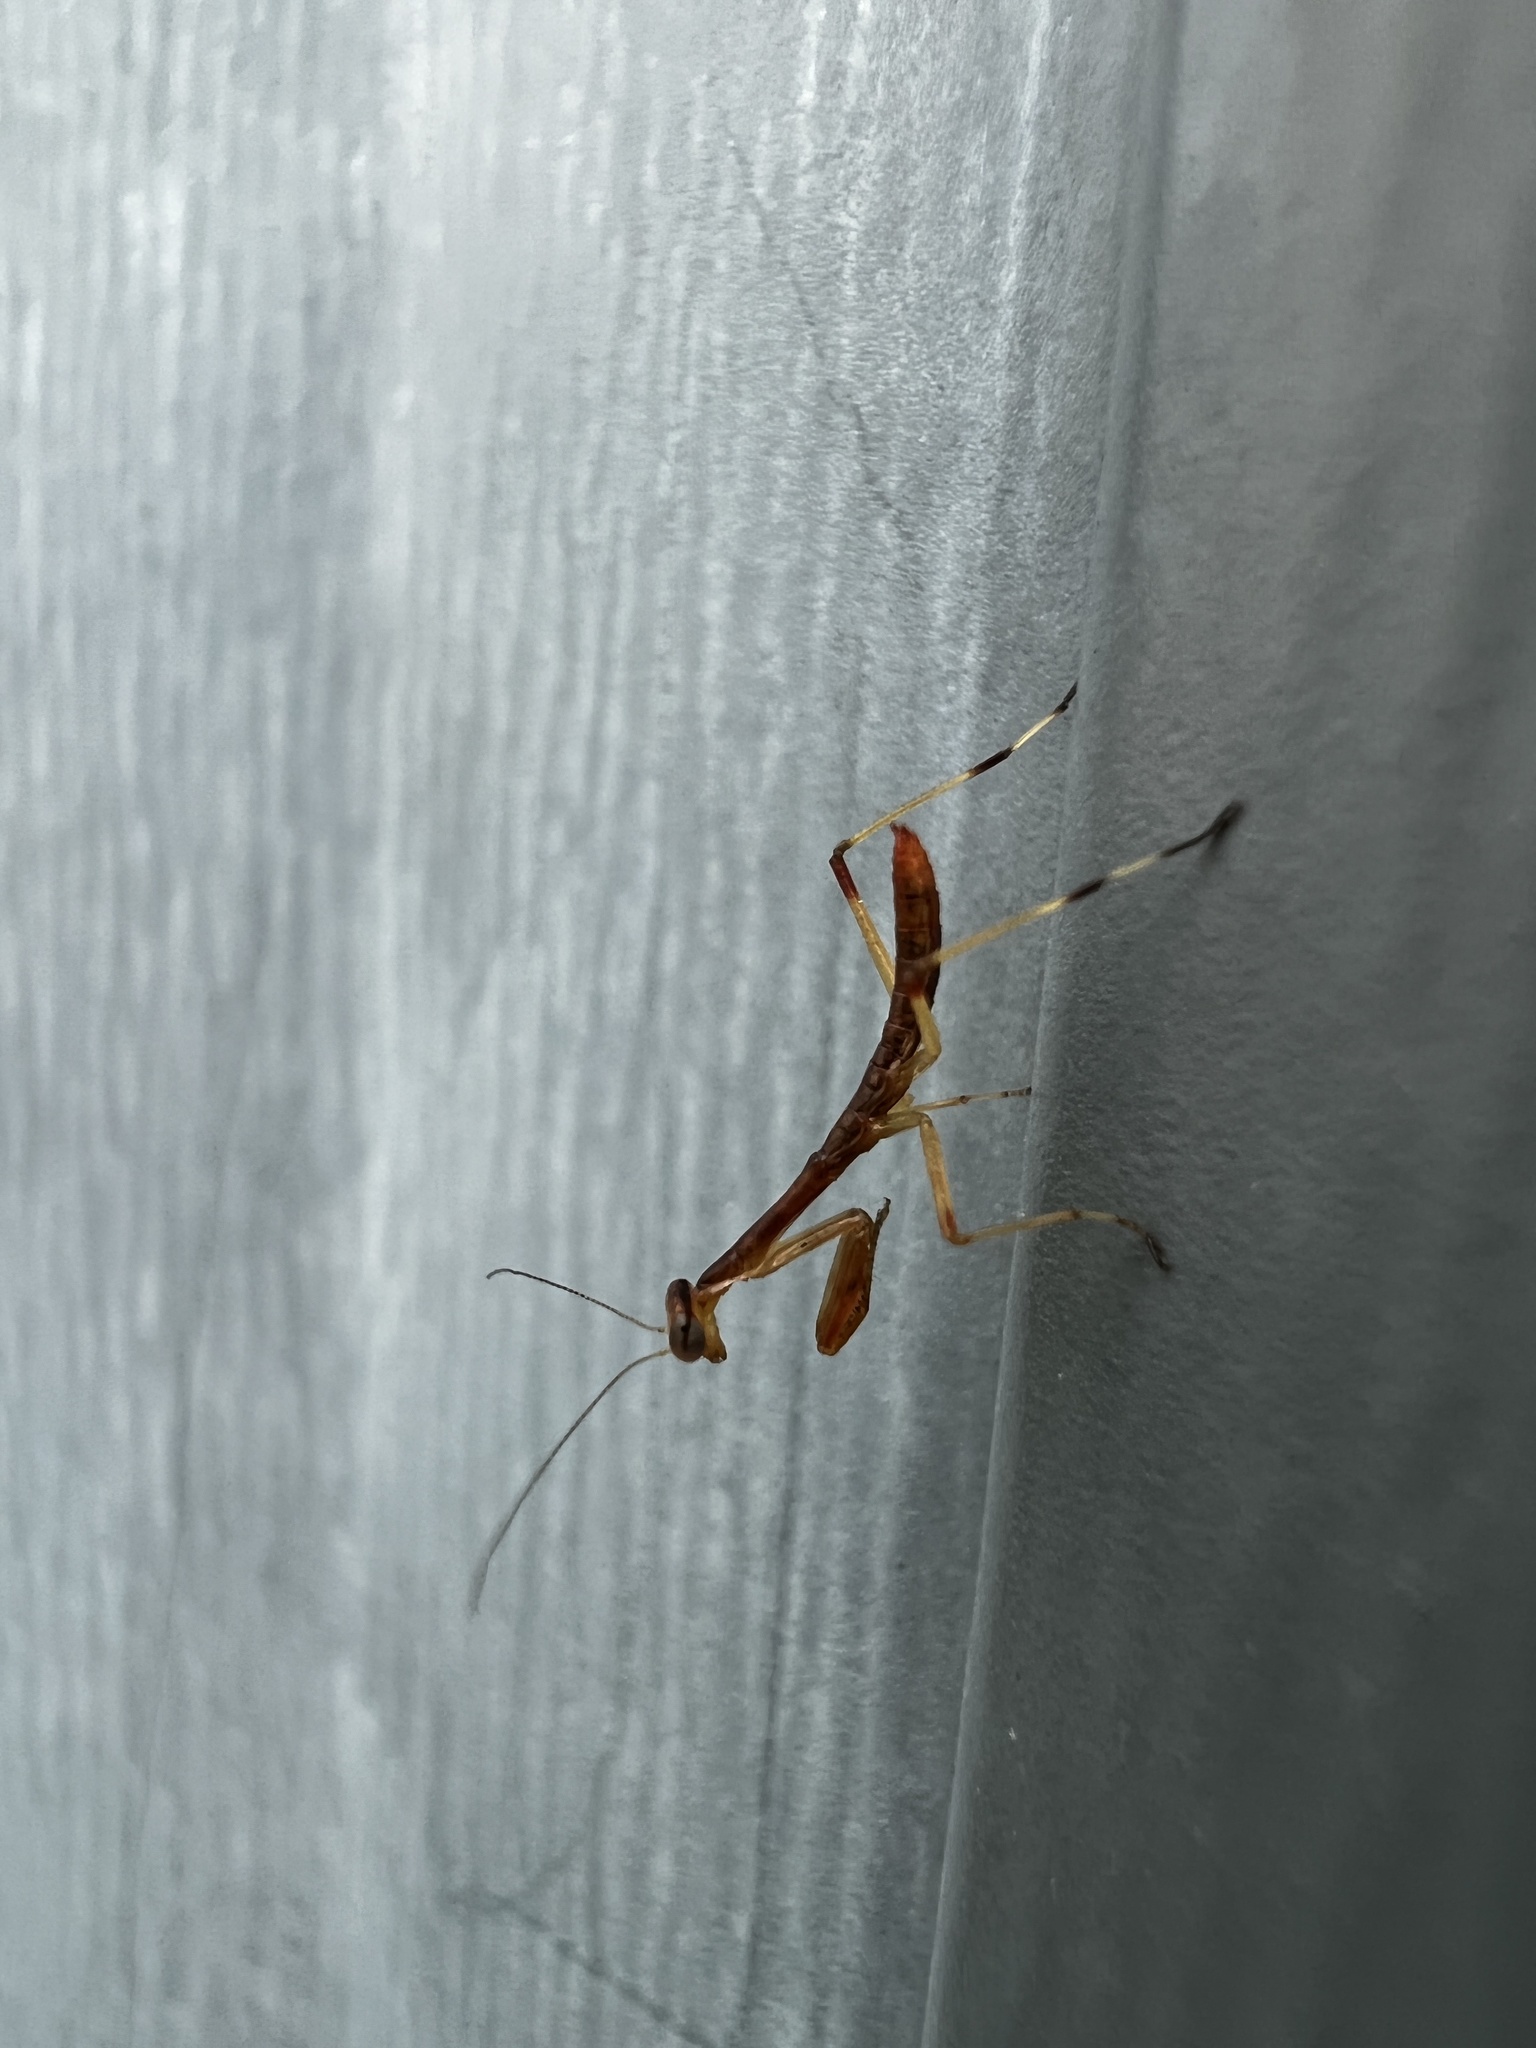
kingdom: Animalia
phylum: Arthropoda
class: Insecta
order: Mantodea
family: Mantidae
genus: Stagmomantis
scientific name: Stagmomantis carolina
